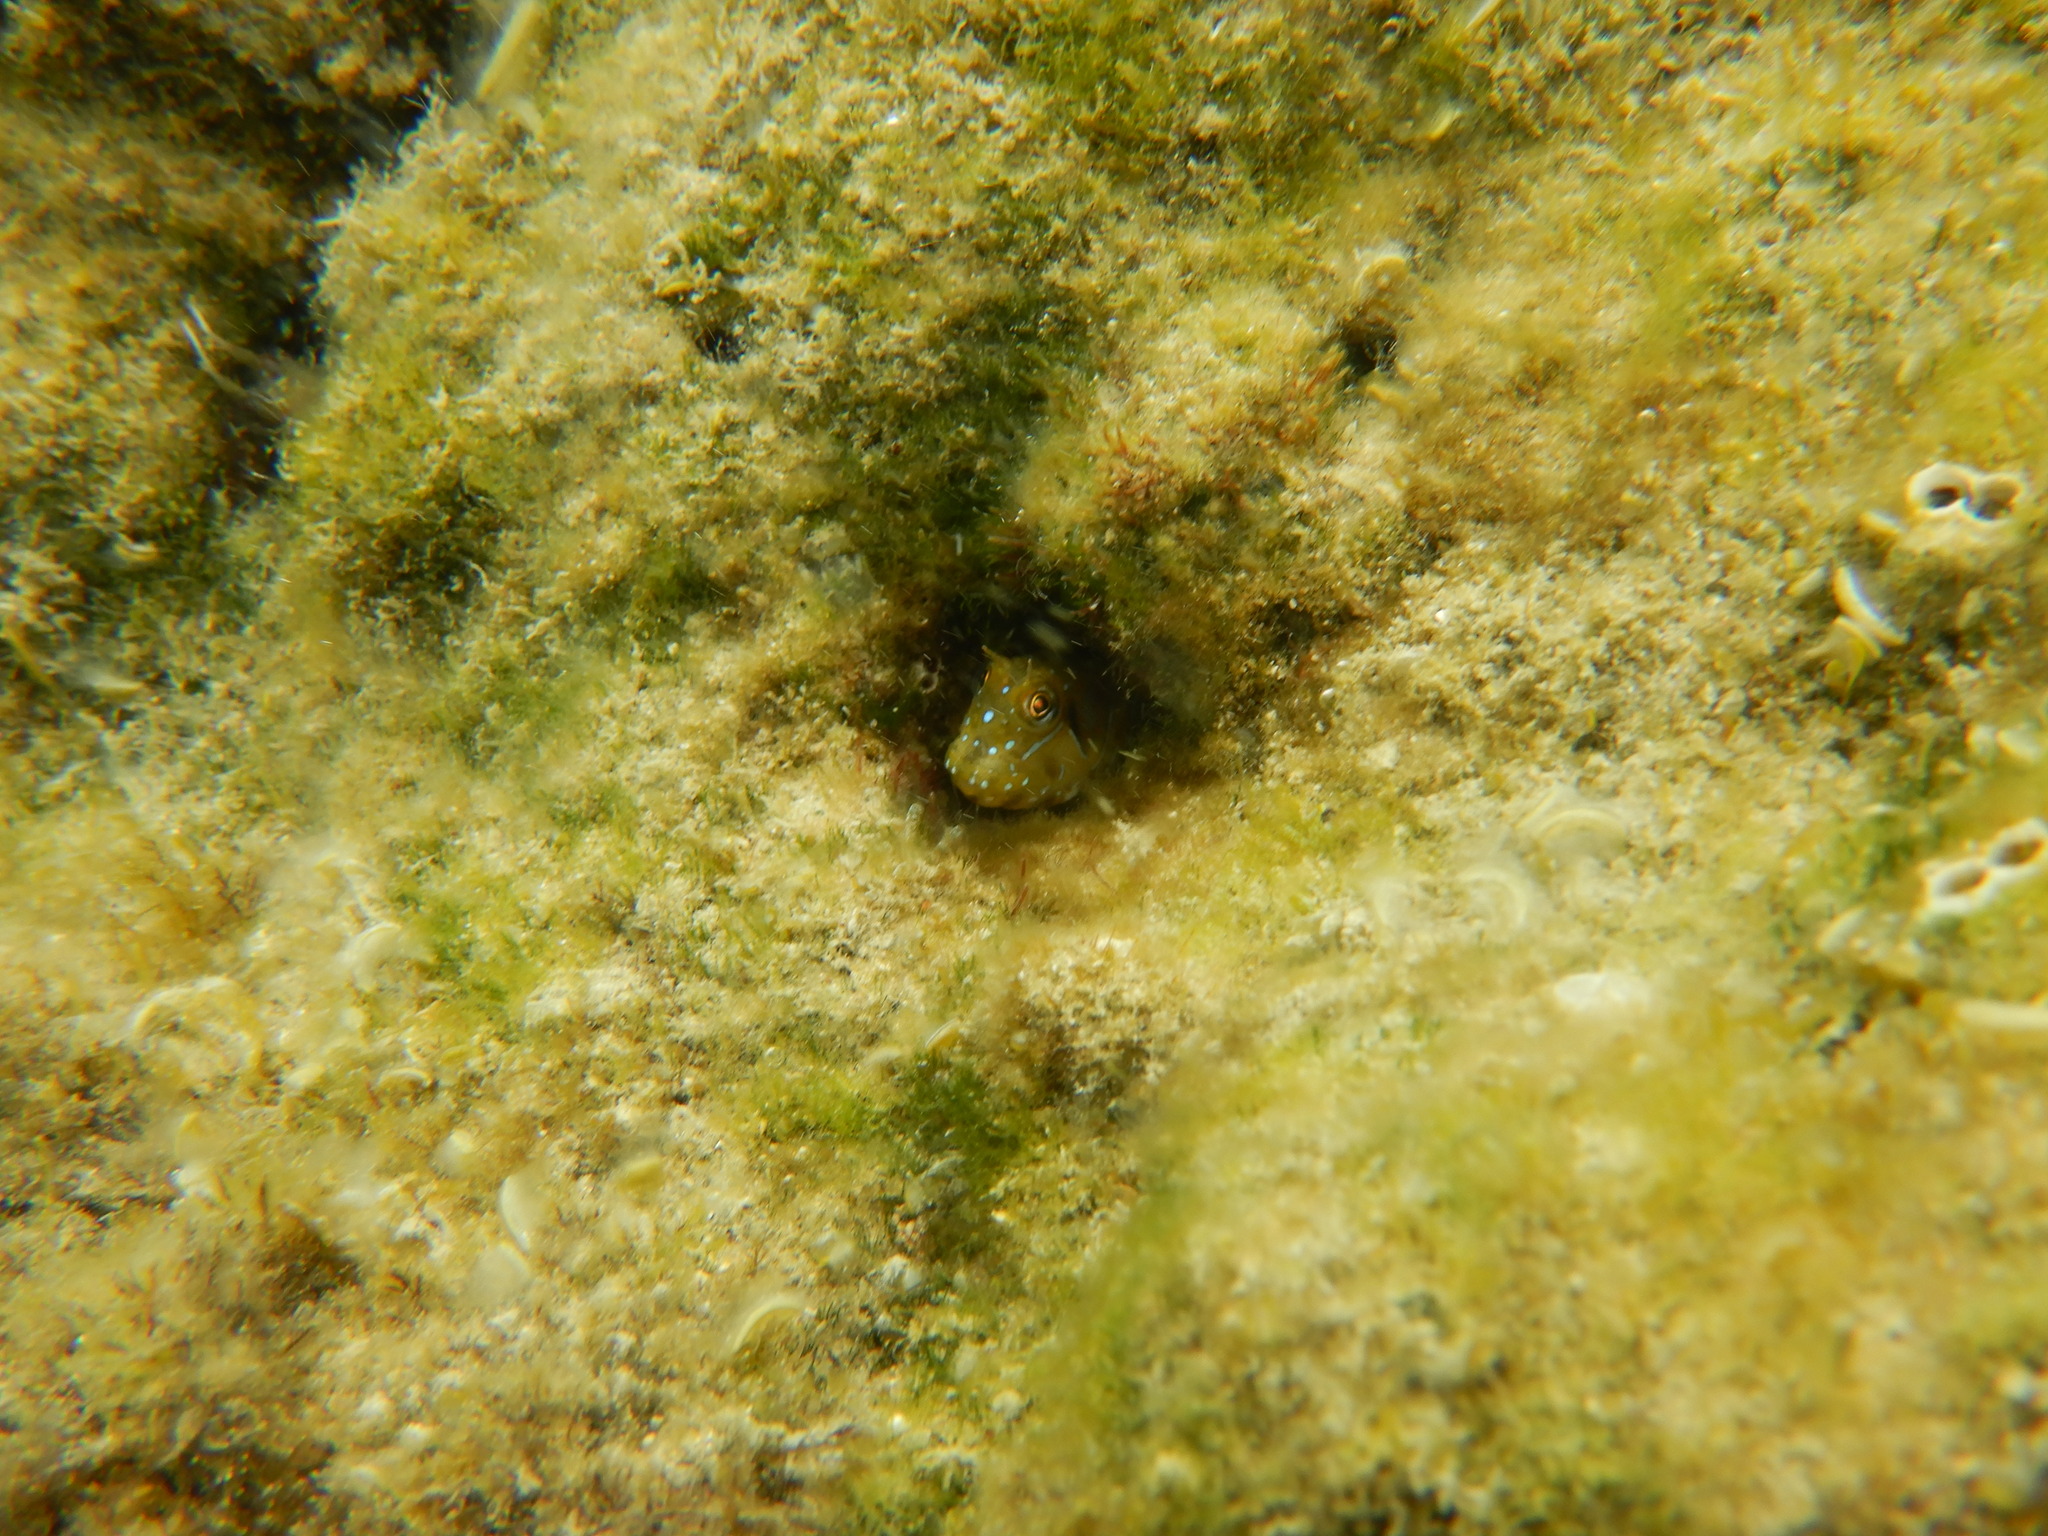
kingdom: Animalia
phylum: Chordata
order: Perciformes
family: Blenniidae
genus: Aidablennius
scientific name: Aidablennius sphynx
